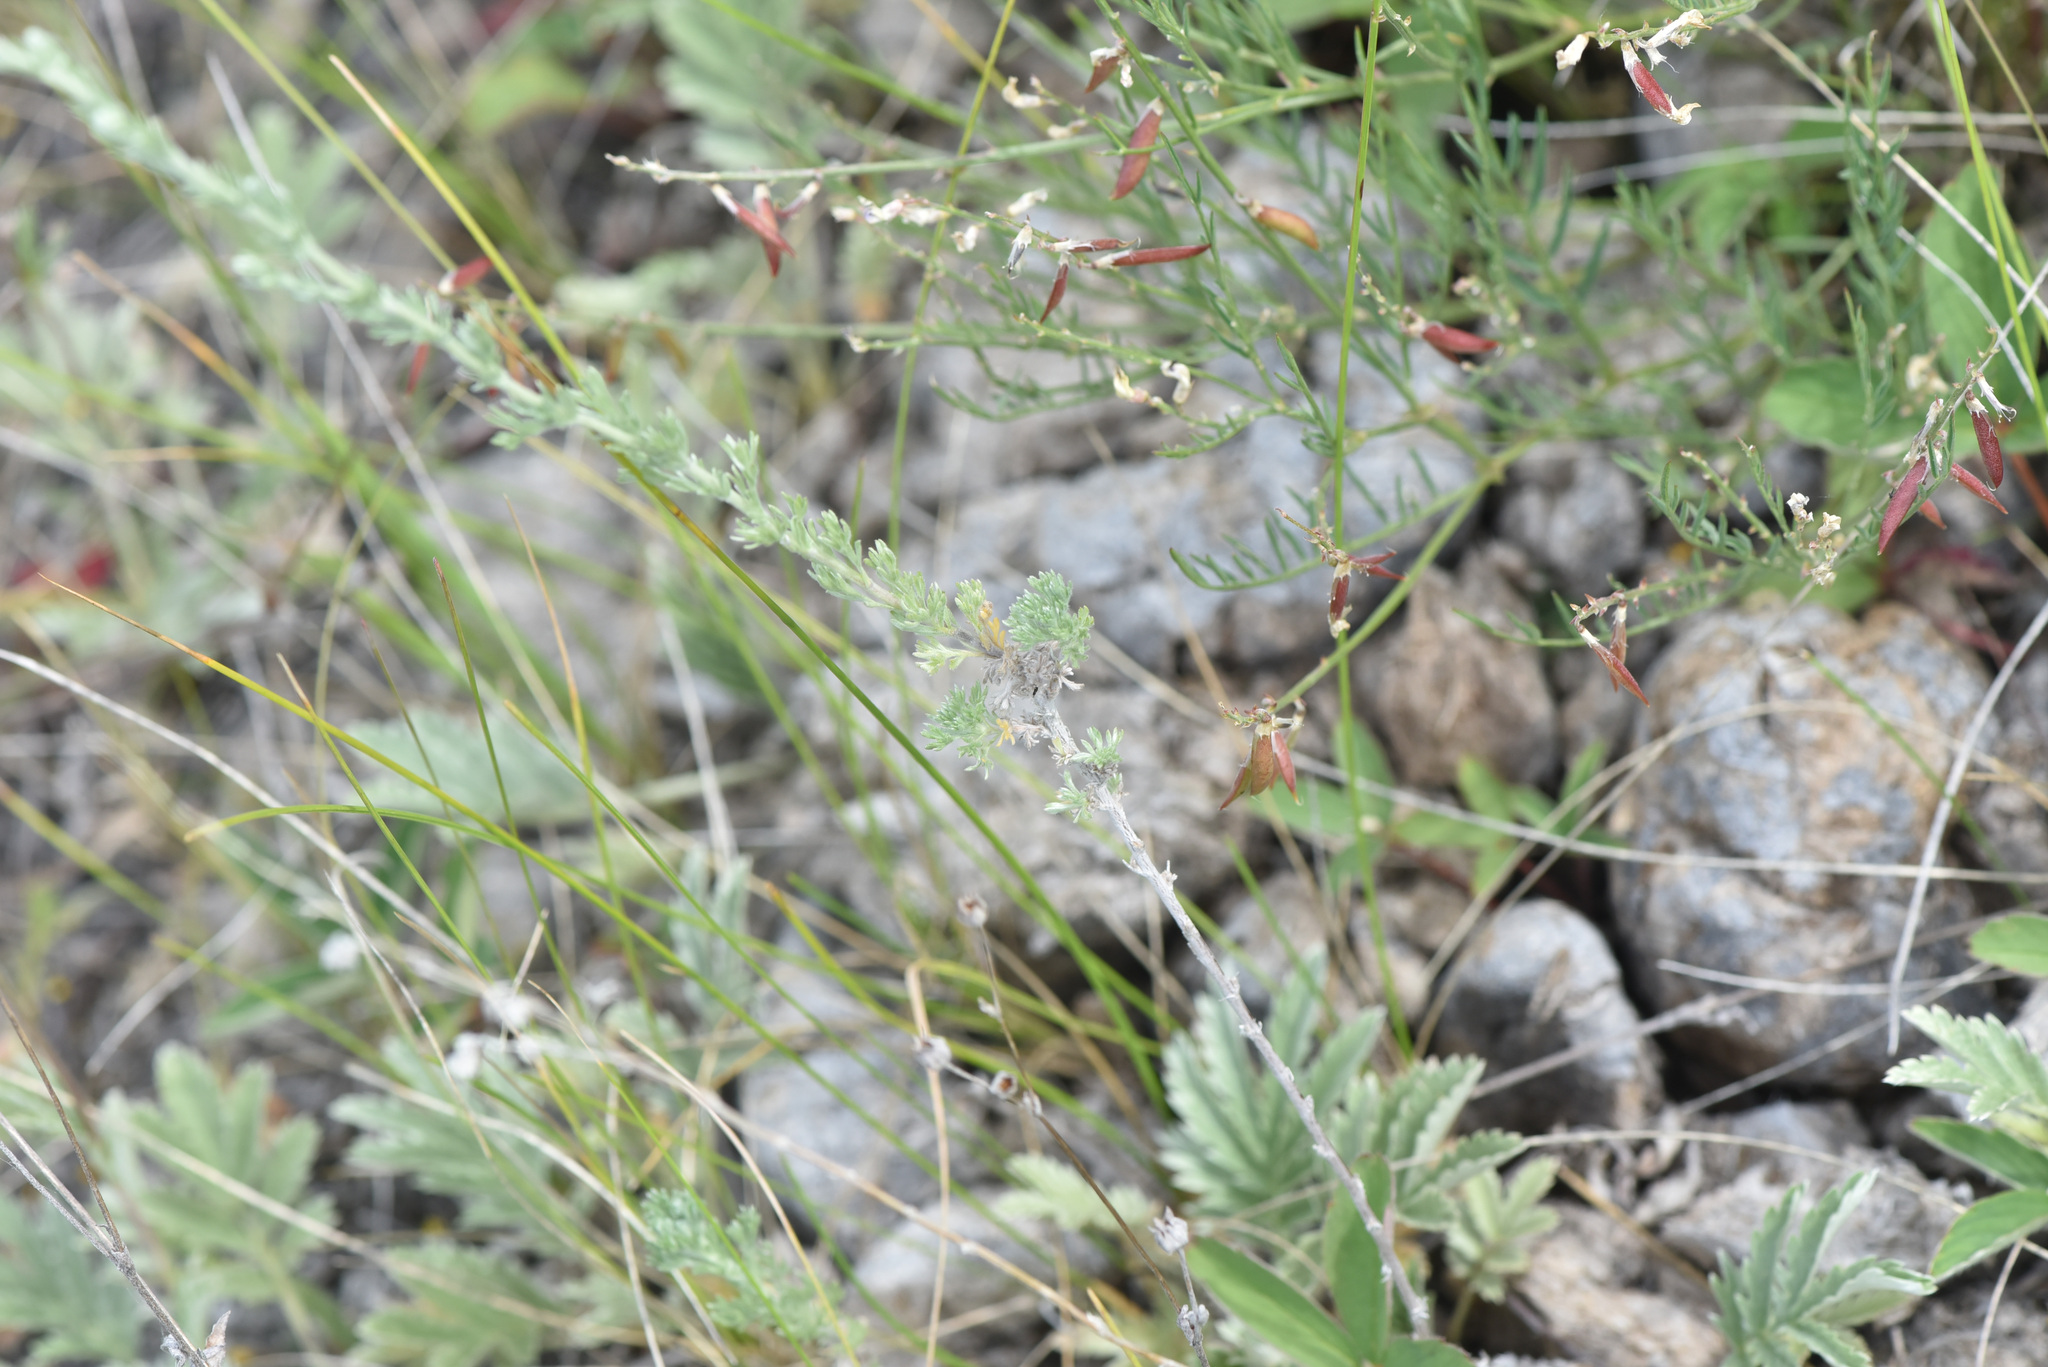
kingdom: Plantae
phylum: Tracheophyta
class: Magnoliopsida
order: Asterales
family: Asteraceae
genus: Artemisia
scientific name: Artemisia frigida
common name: Prairie sagewort
